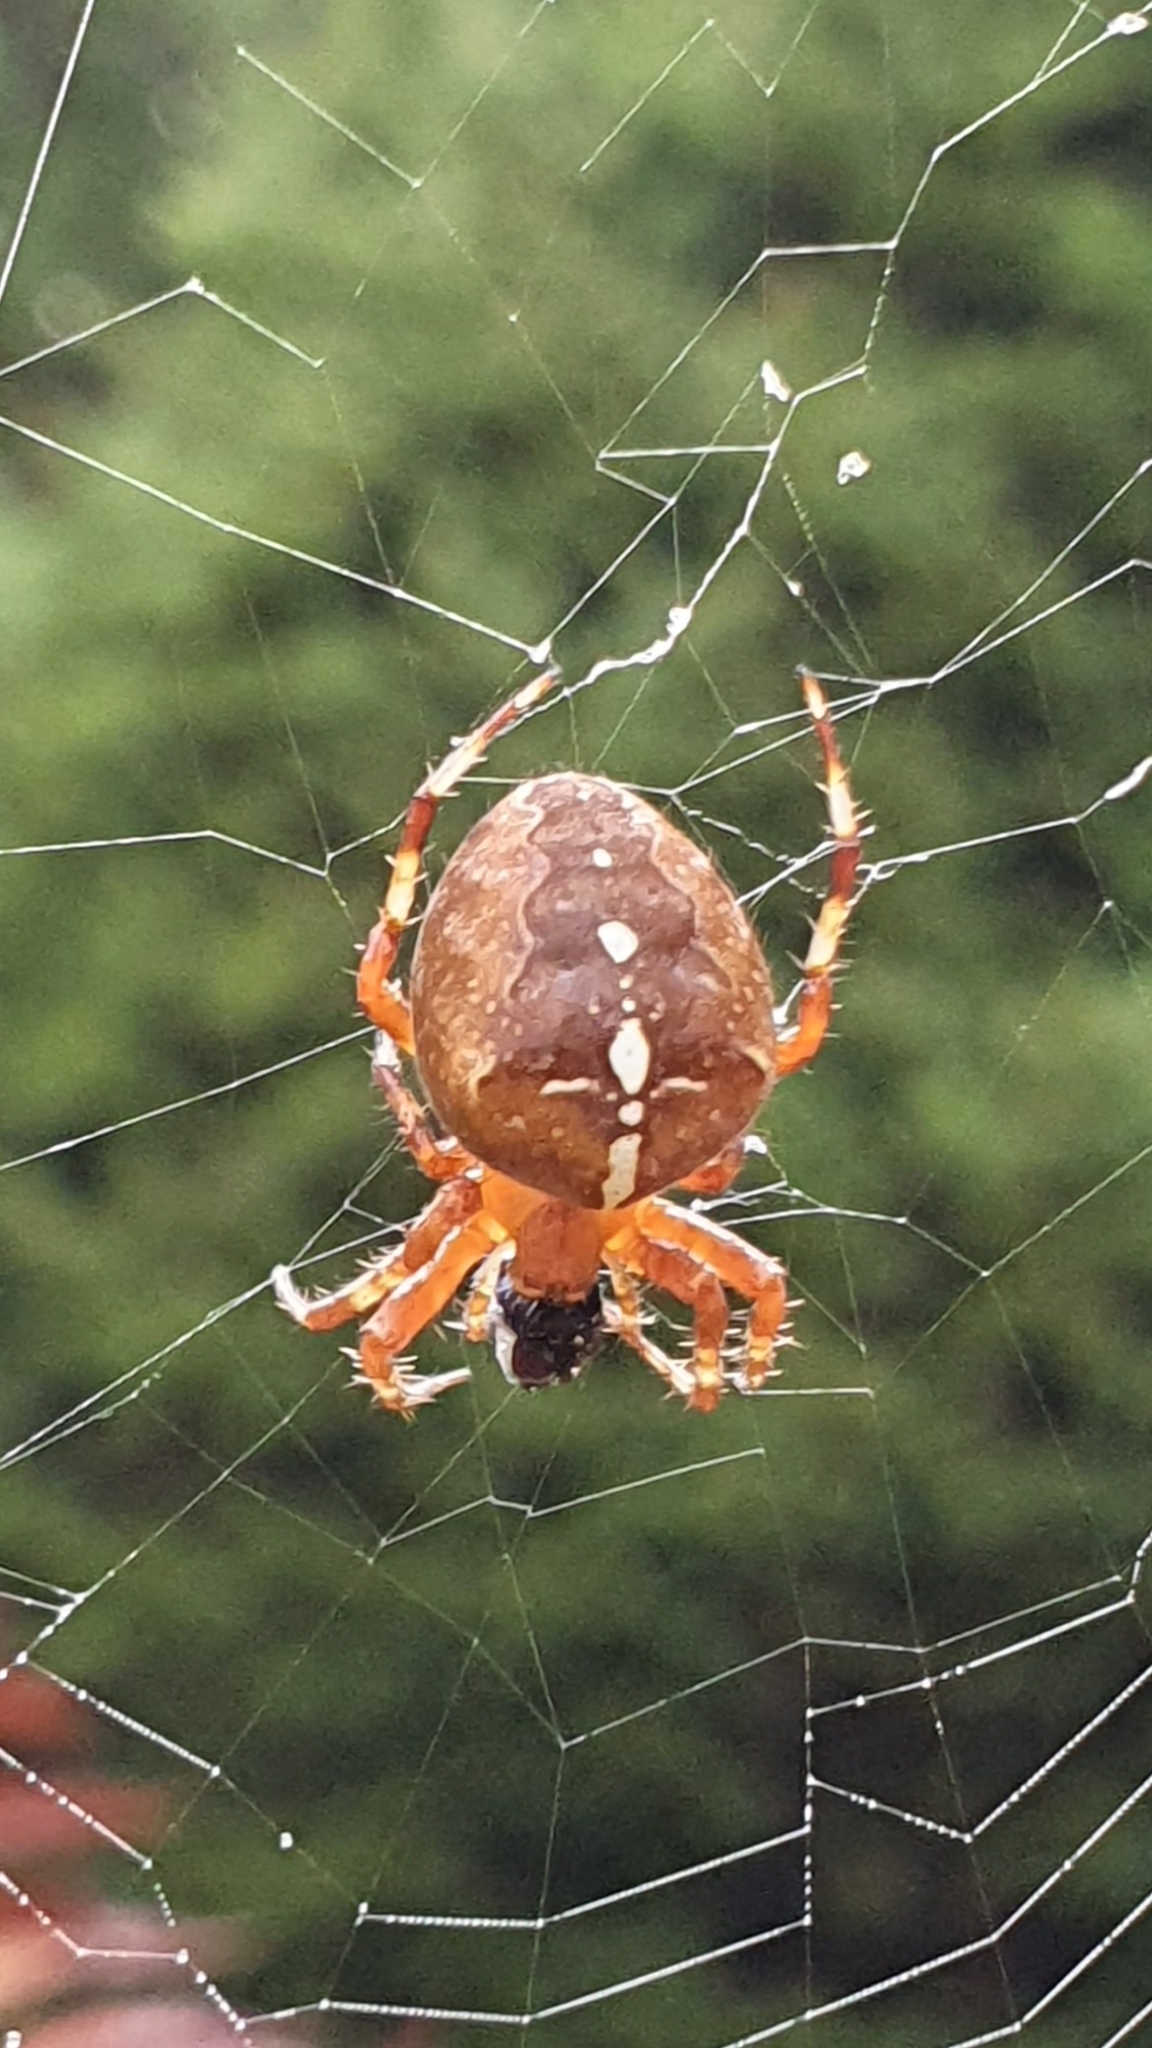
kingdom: Animalia
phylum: Arthropoda
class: Arachnida
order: Araneae
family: Araneidae
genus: Araneus
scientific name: Araneus diadematus
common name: Cross orbweaver
